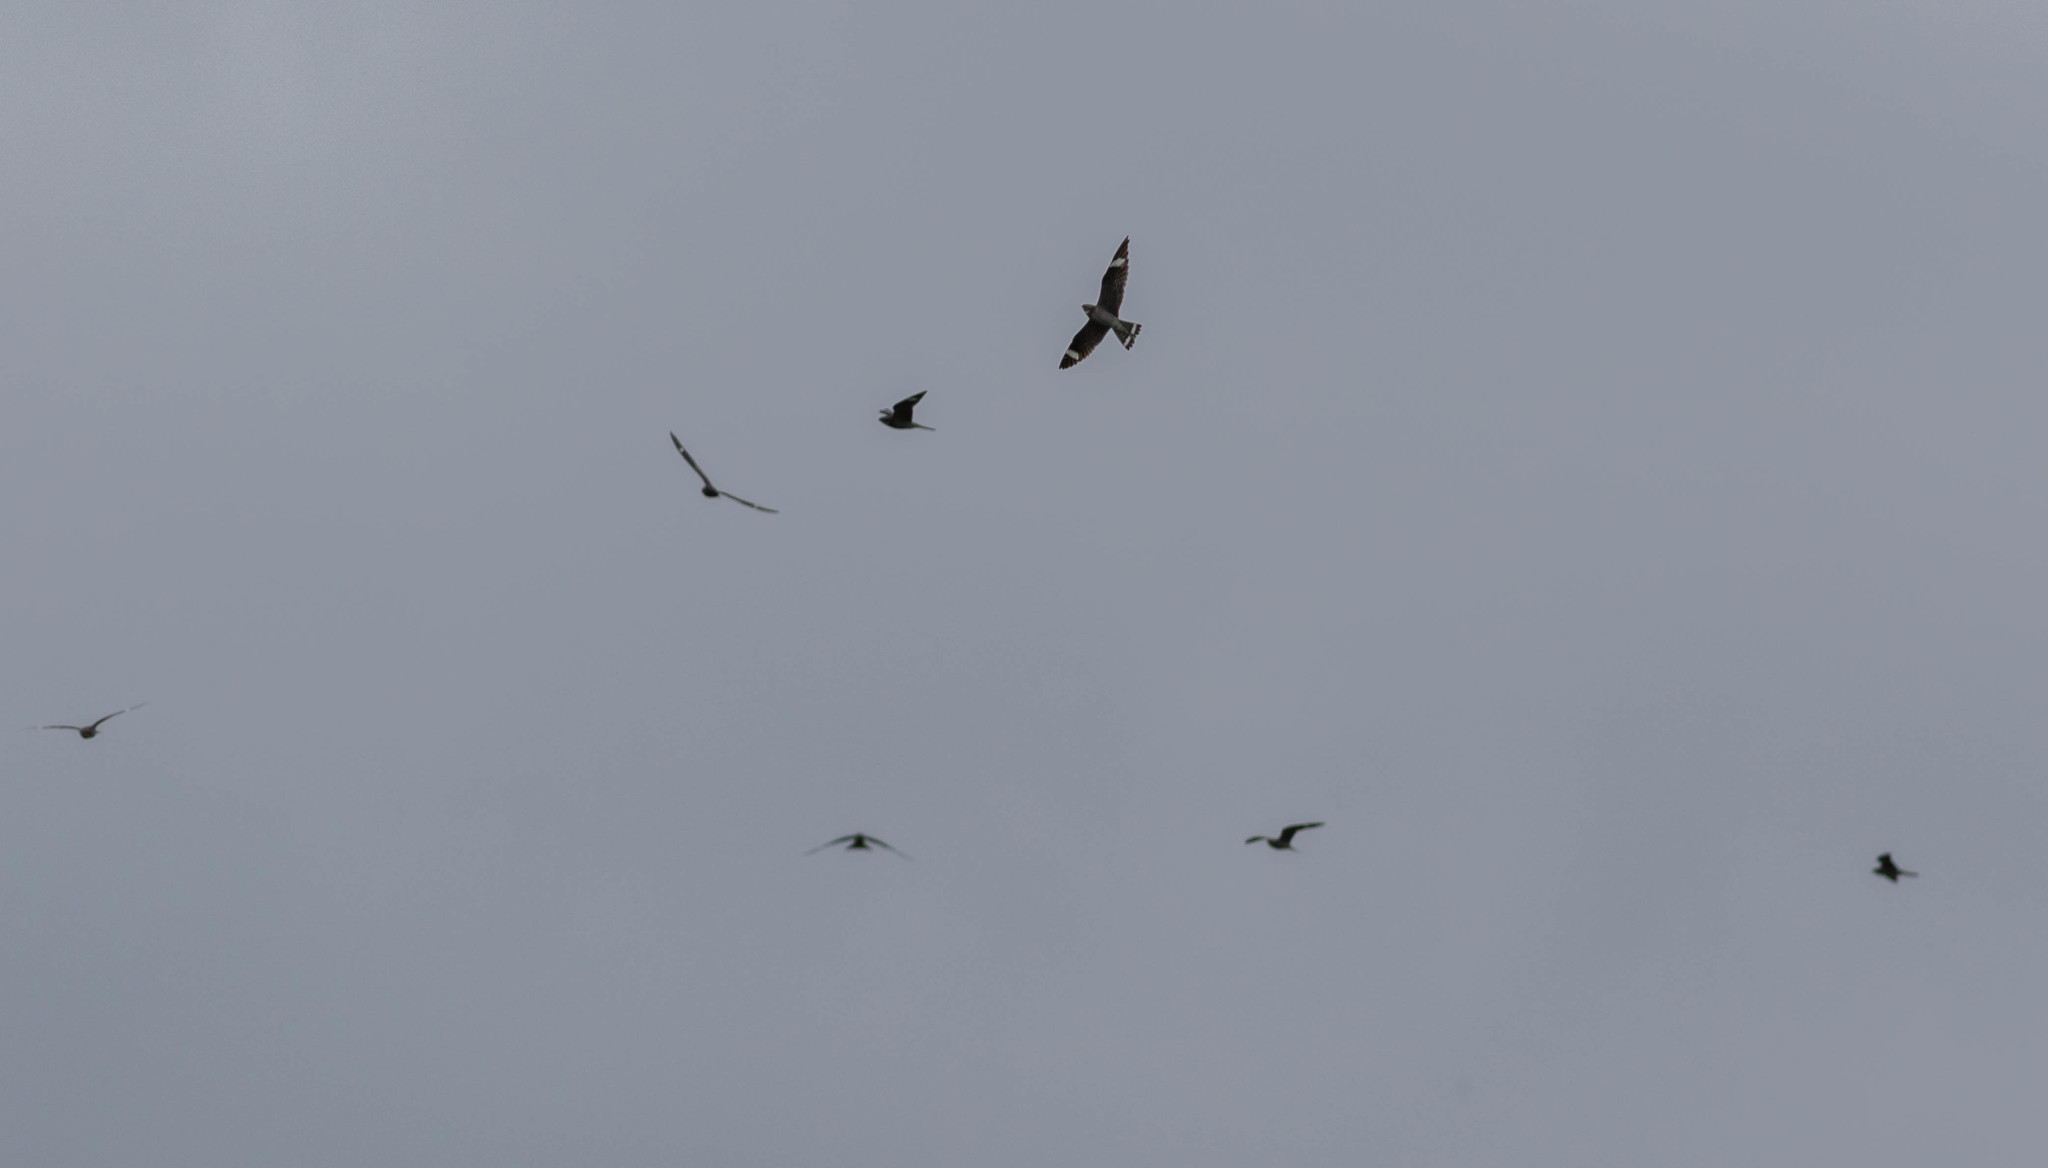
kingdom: Animalia
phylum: Chordata
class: Aves
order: Caprimulgiformes
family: Caprimulgidae
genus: Chordeiles
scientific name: Chordeiles minor
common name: Common nighthawk
